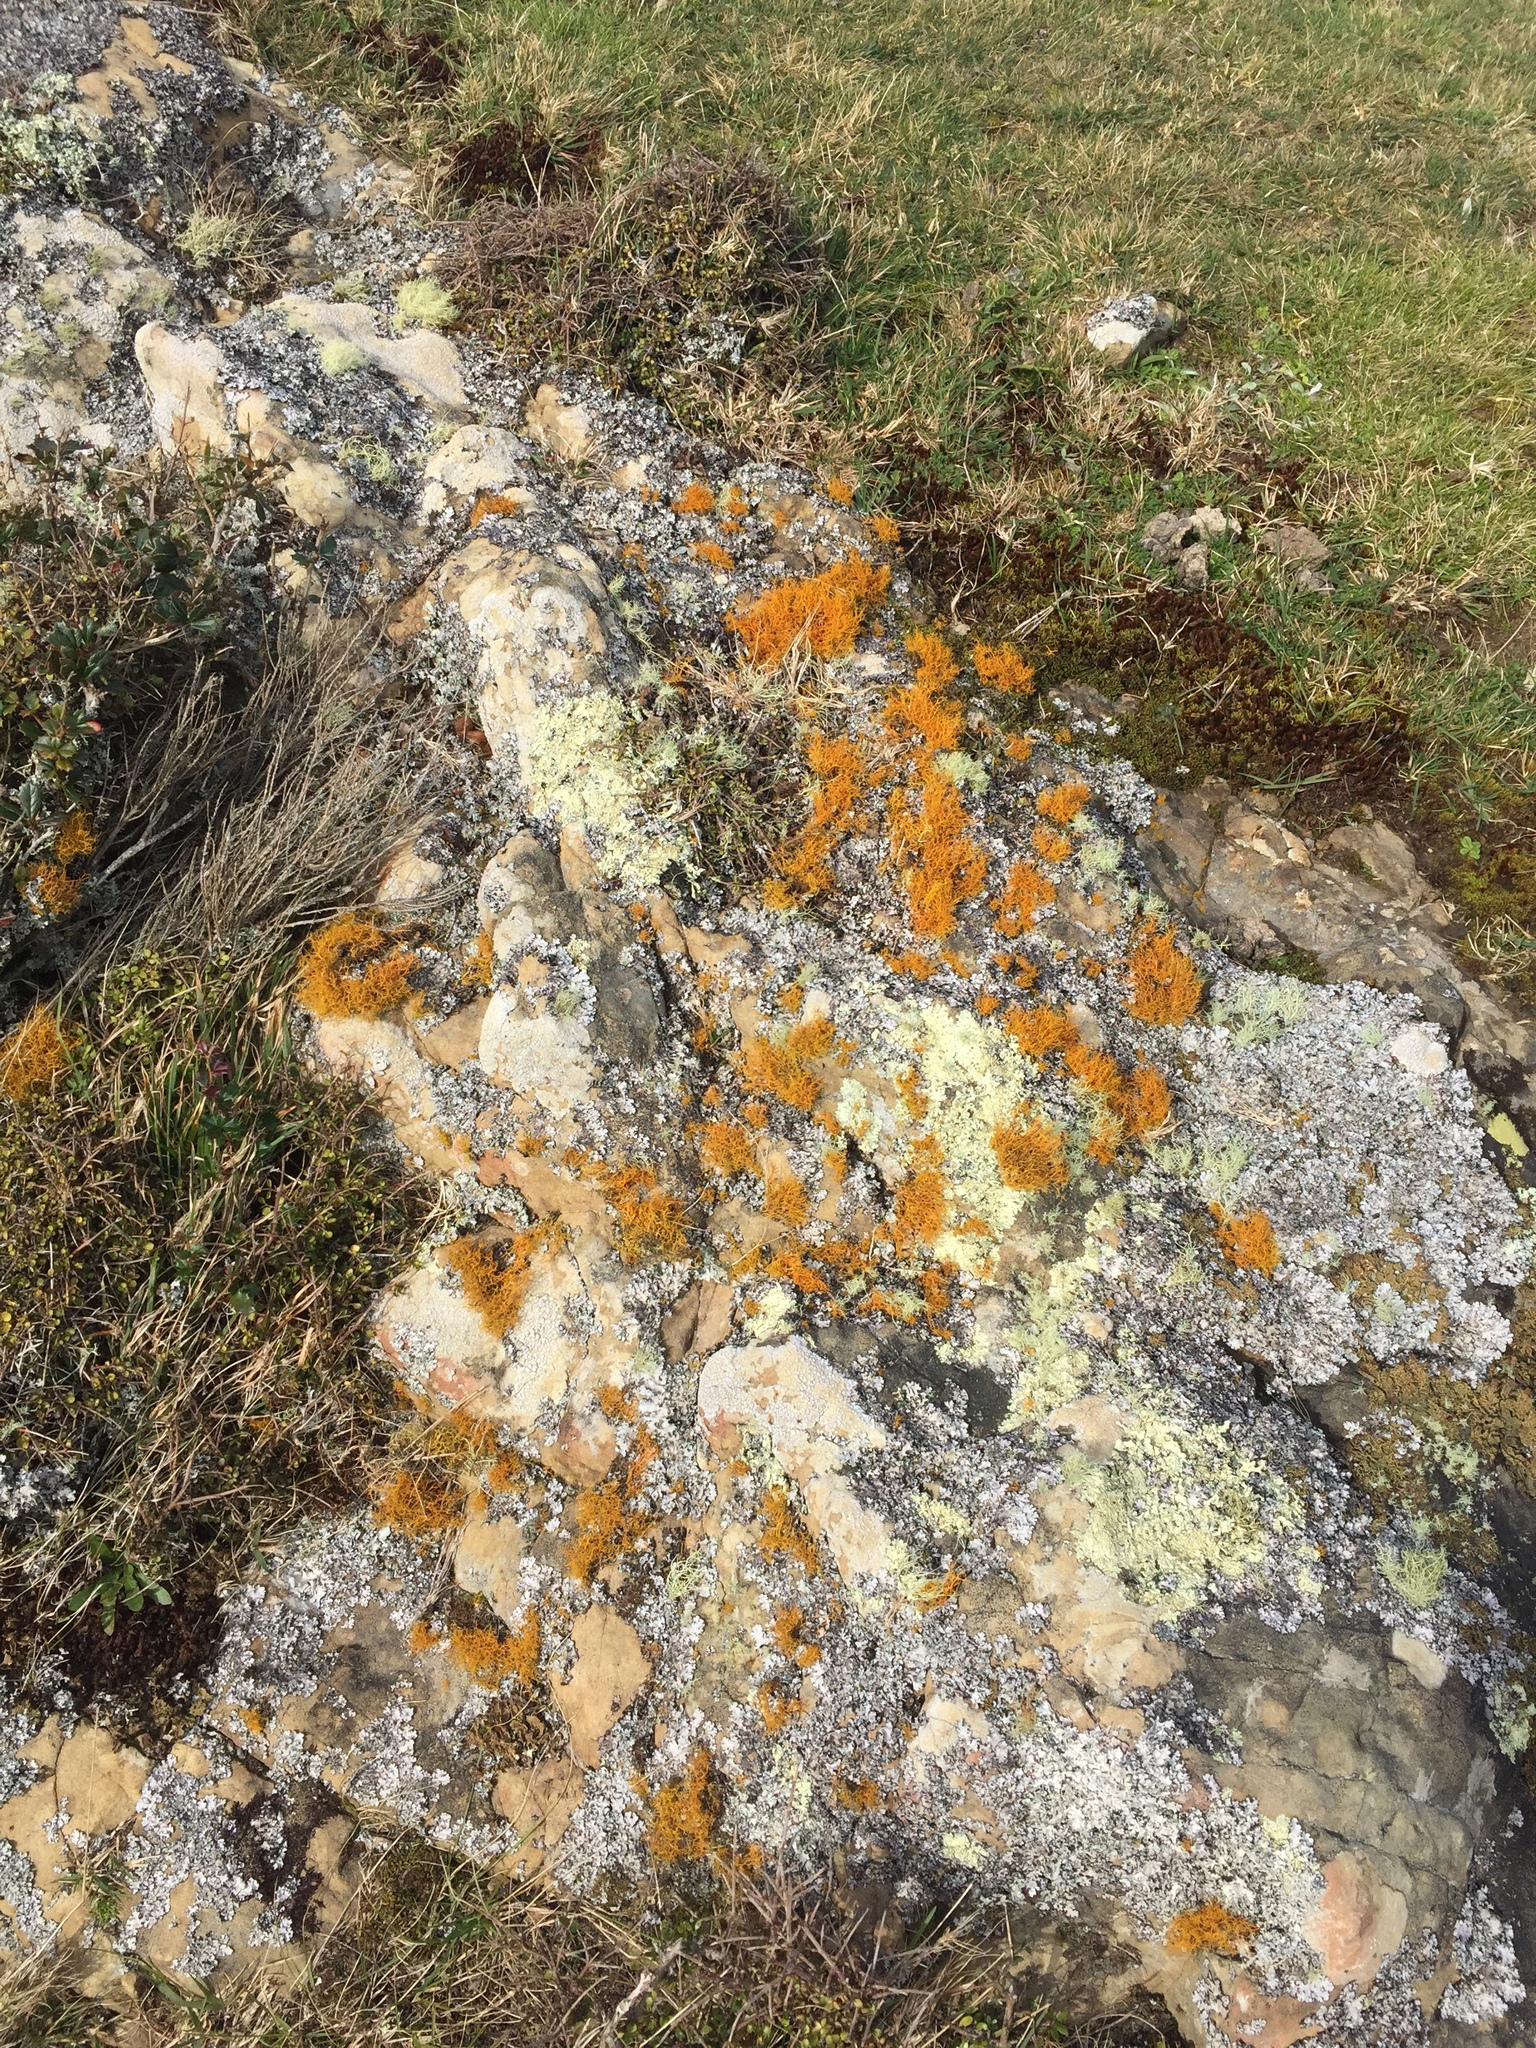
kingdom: Fungi
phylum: Ascomycota
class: Lecanoromycetes
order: Teloschistales
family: Teloschistaceae
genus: Teloschistes
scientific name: Teloschistes flavicans
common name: Golden hair-lichen
